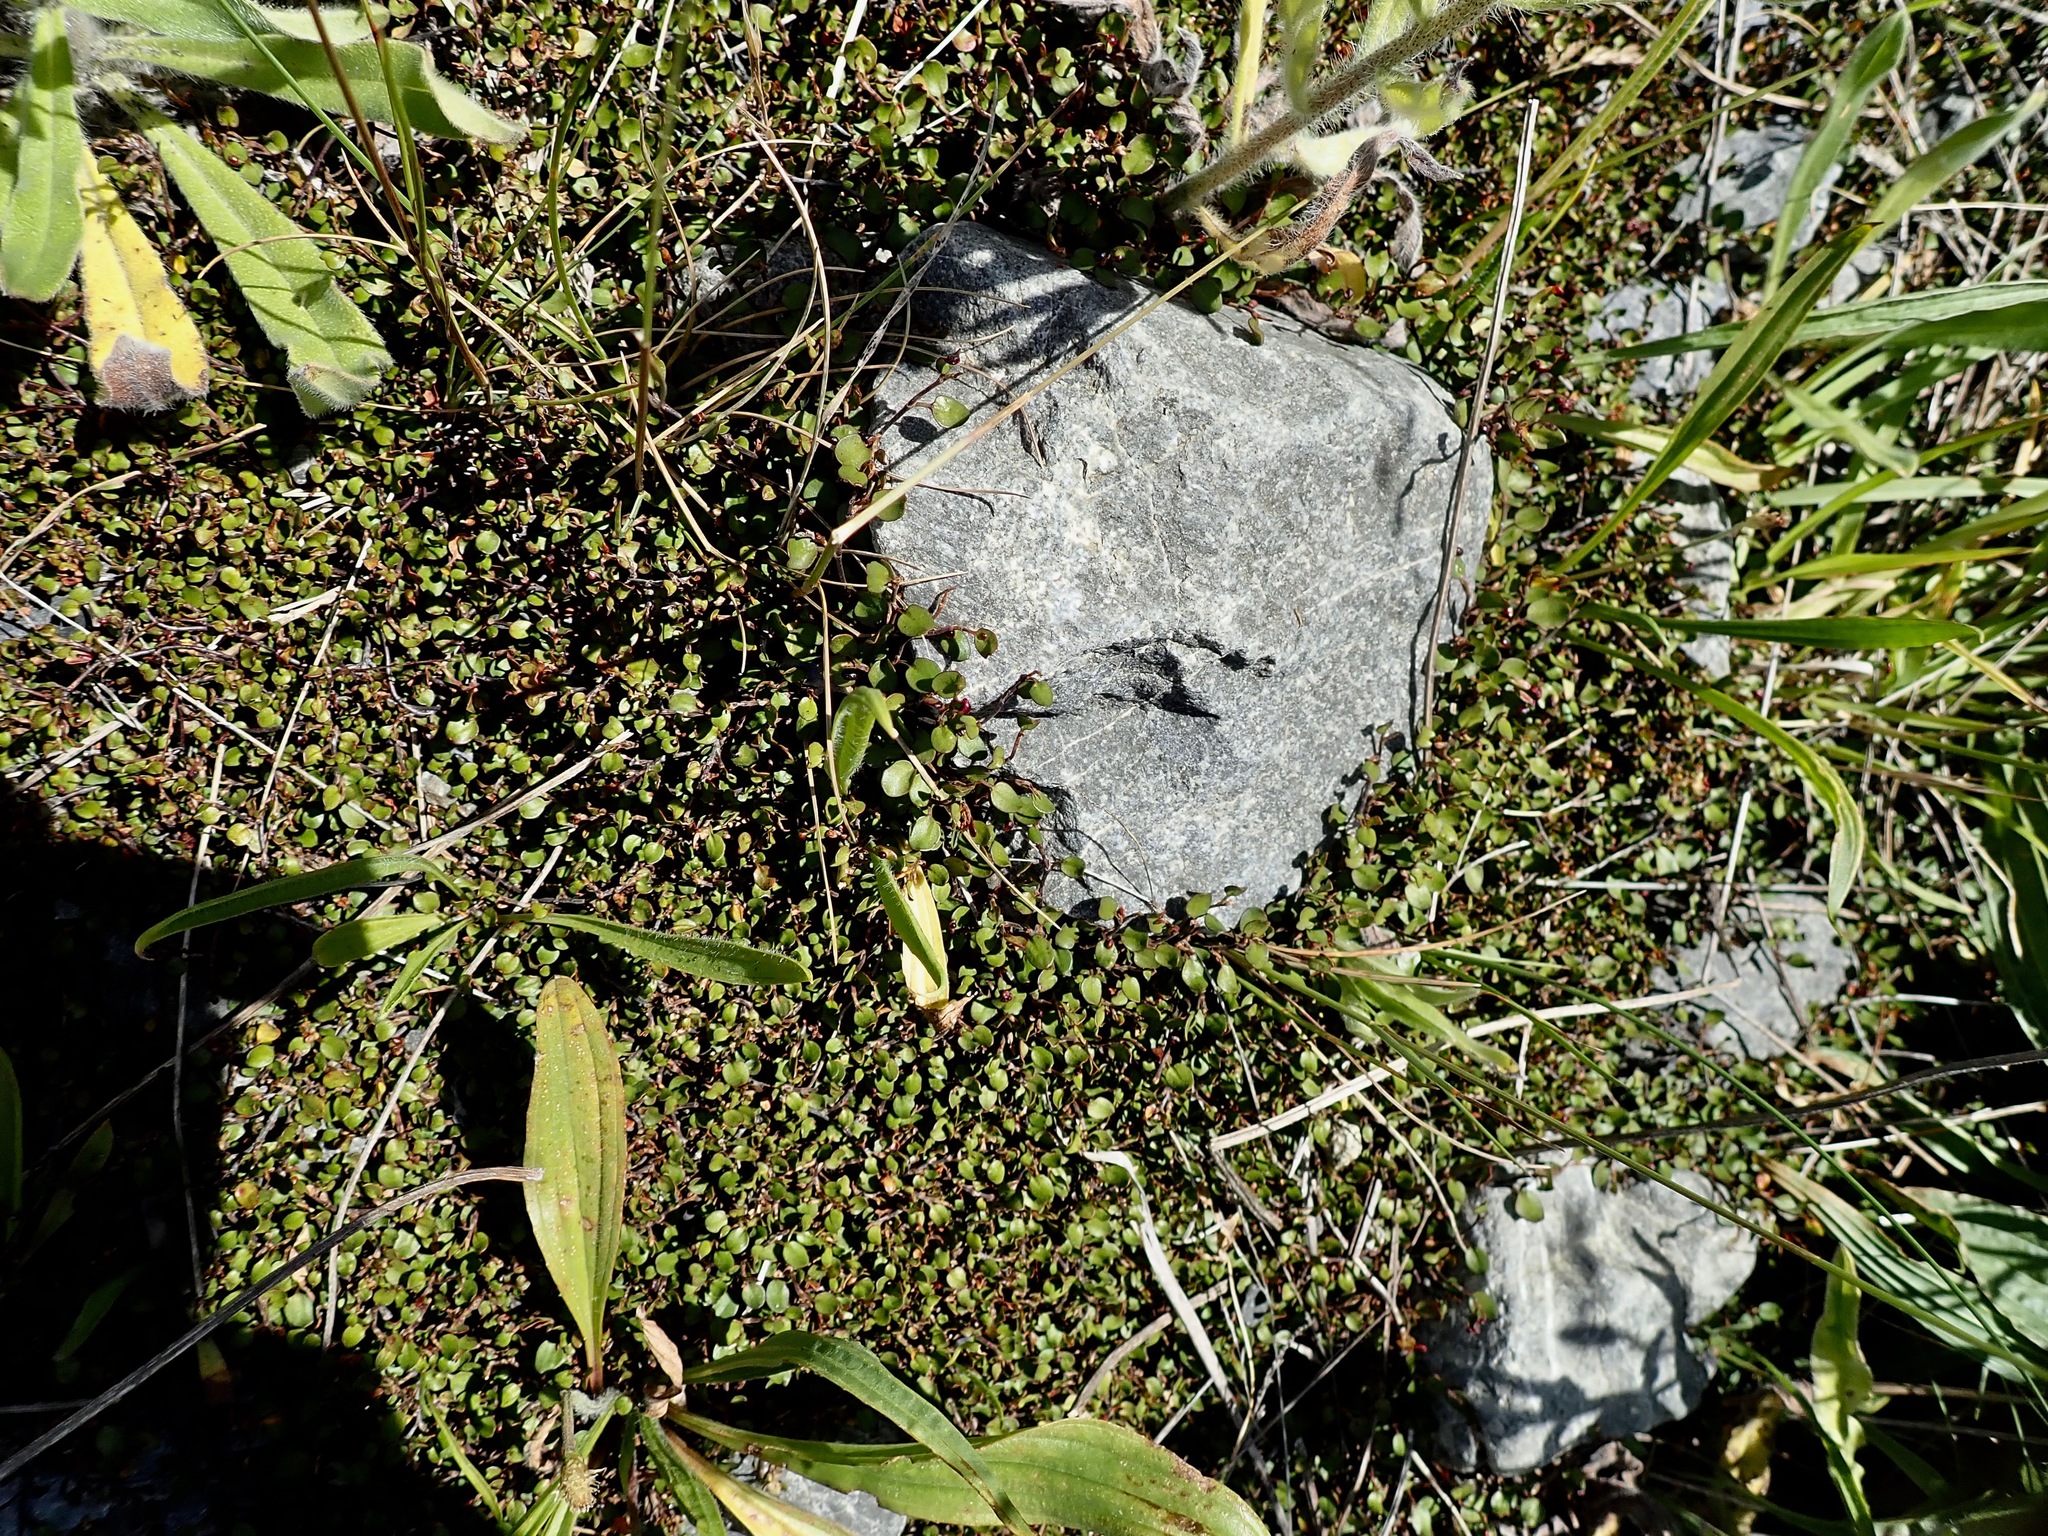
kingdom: Plantae
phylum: Tracheophyta
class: Magnoliopsida
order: Caryophyllales
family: Polygonaceae
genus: Muehlenbeckia
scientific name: Muehlenbeckia axillaris
